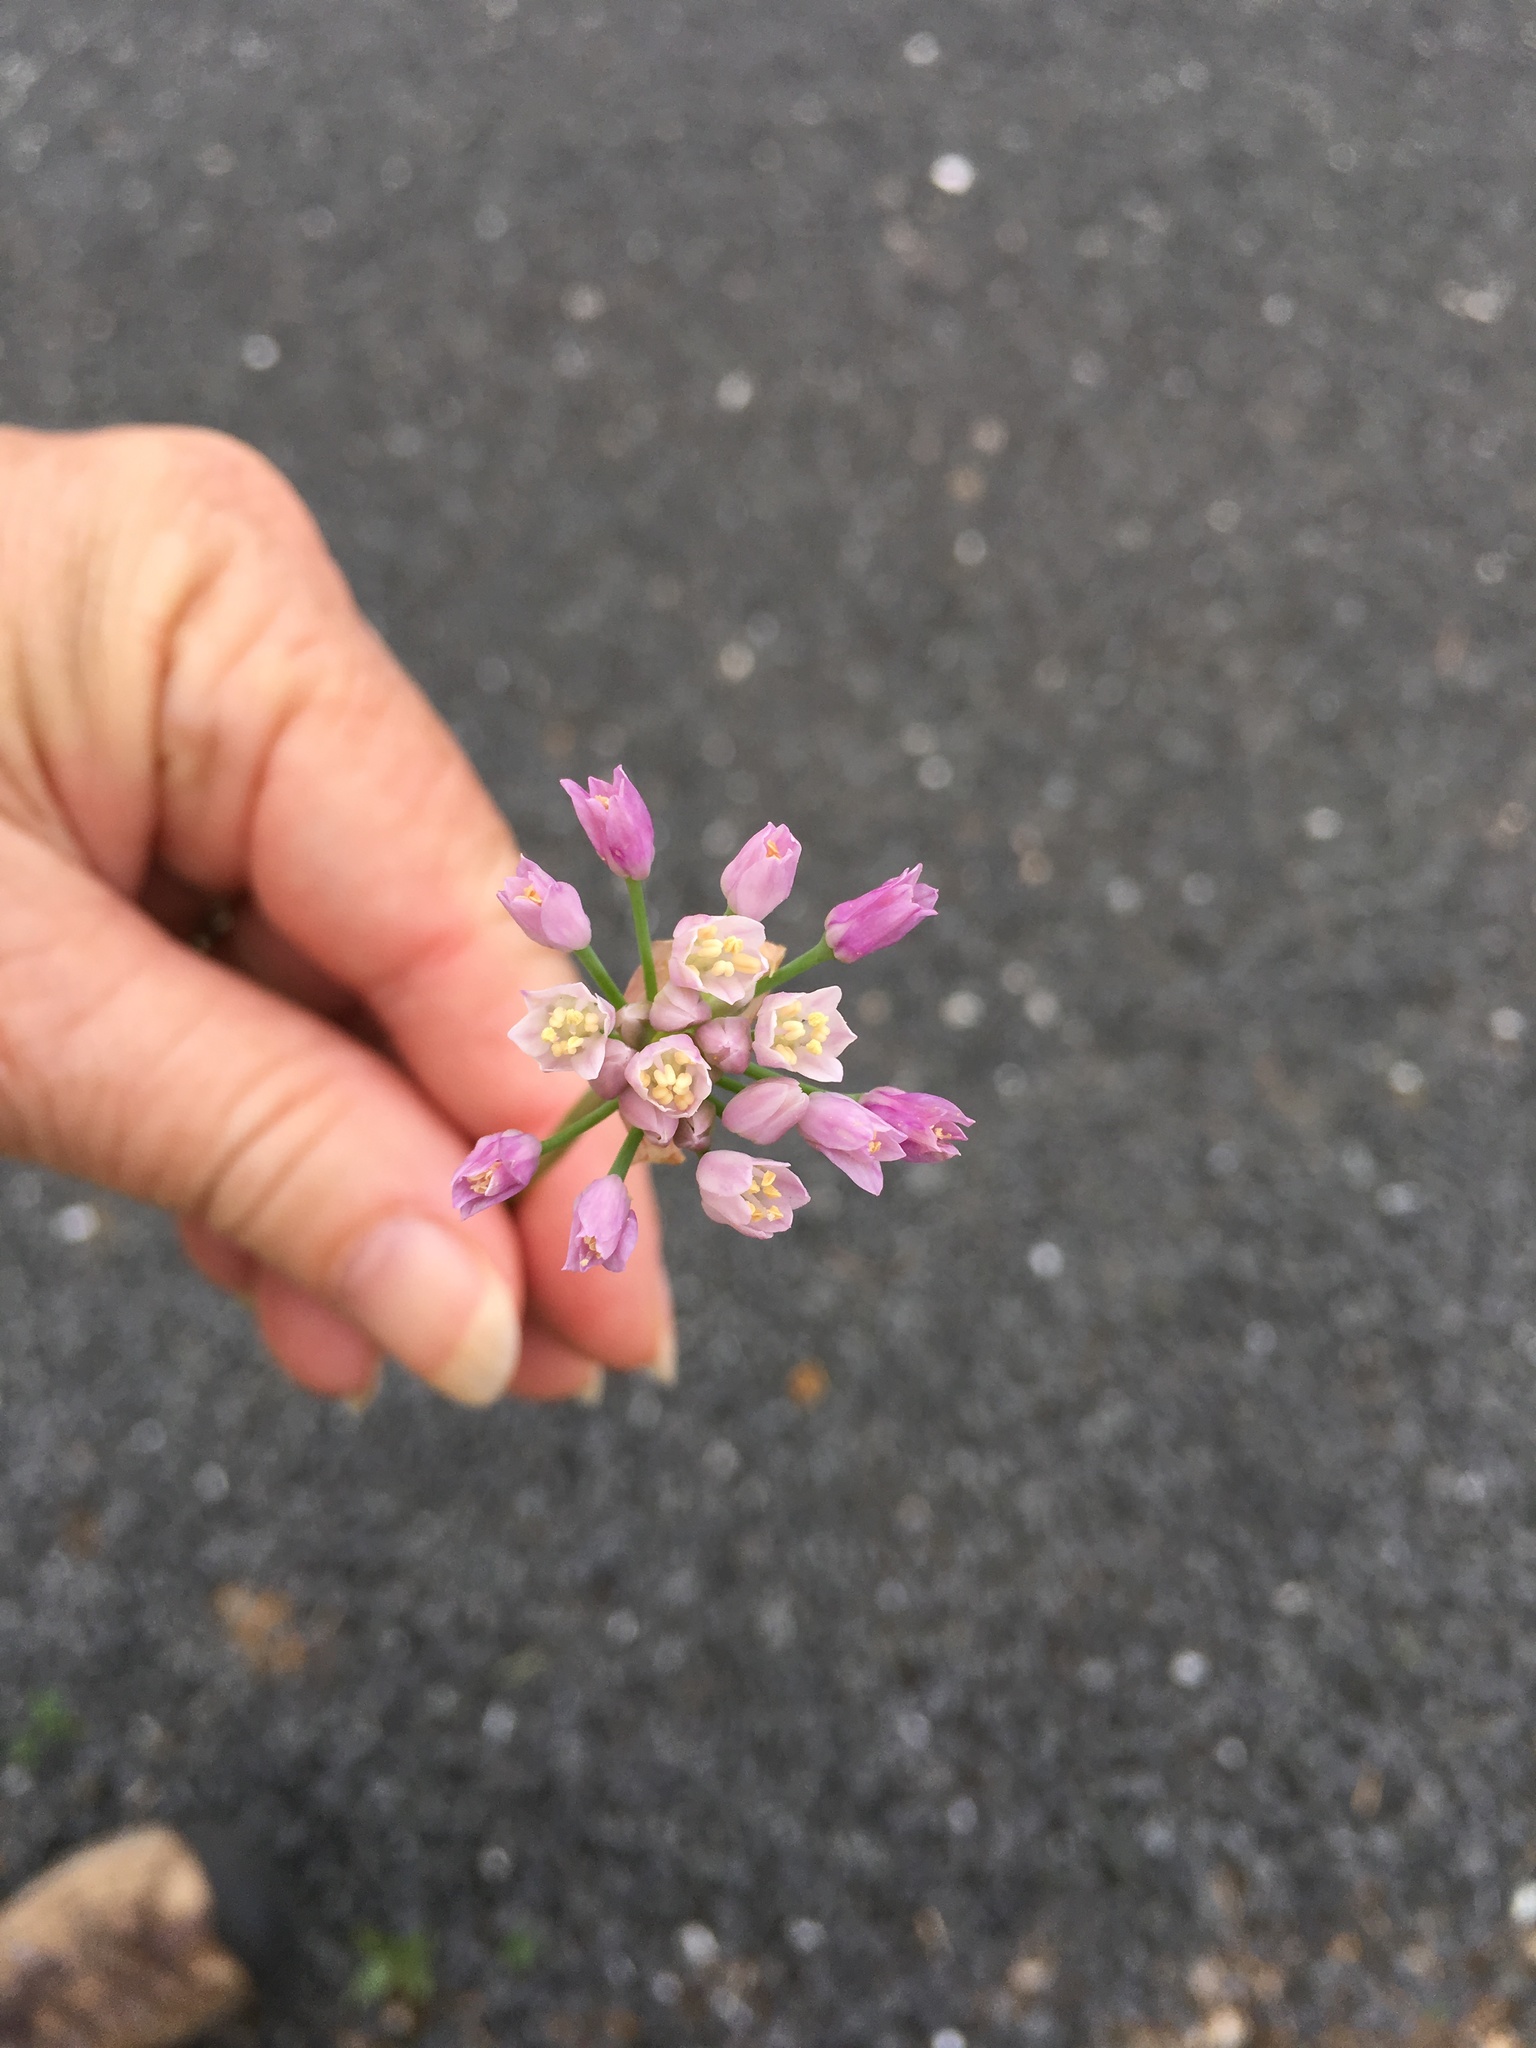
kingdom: Plantae
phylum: Tracheophyta
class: Liliopsida
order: Asparagales
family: Amaryllidaceae
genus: Allium
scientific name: Allium drummondii
